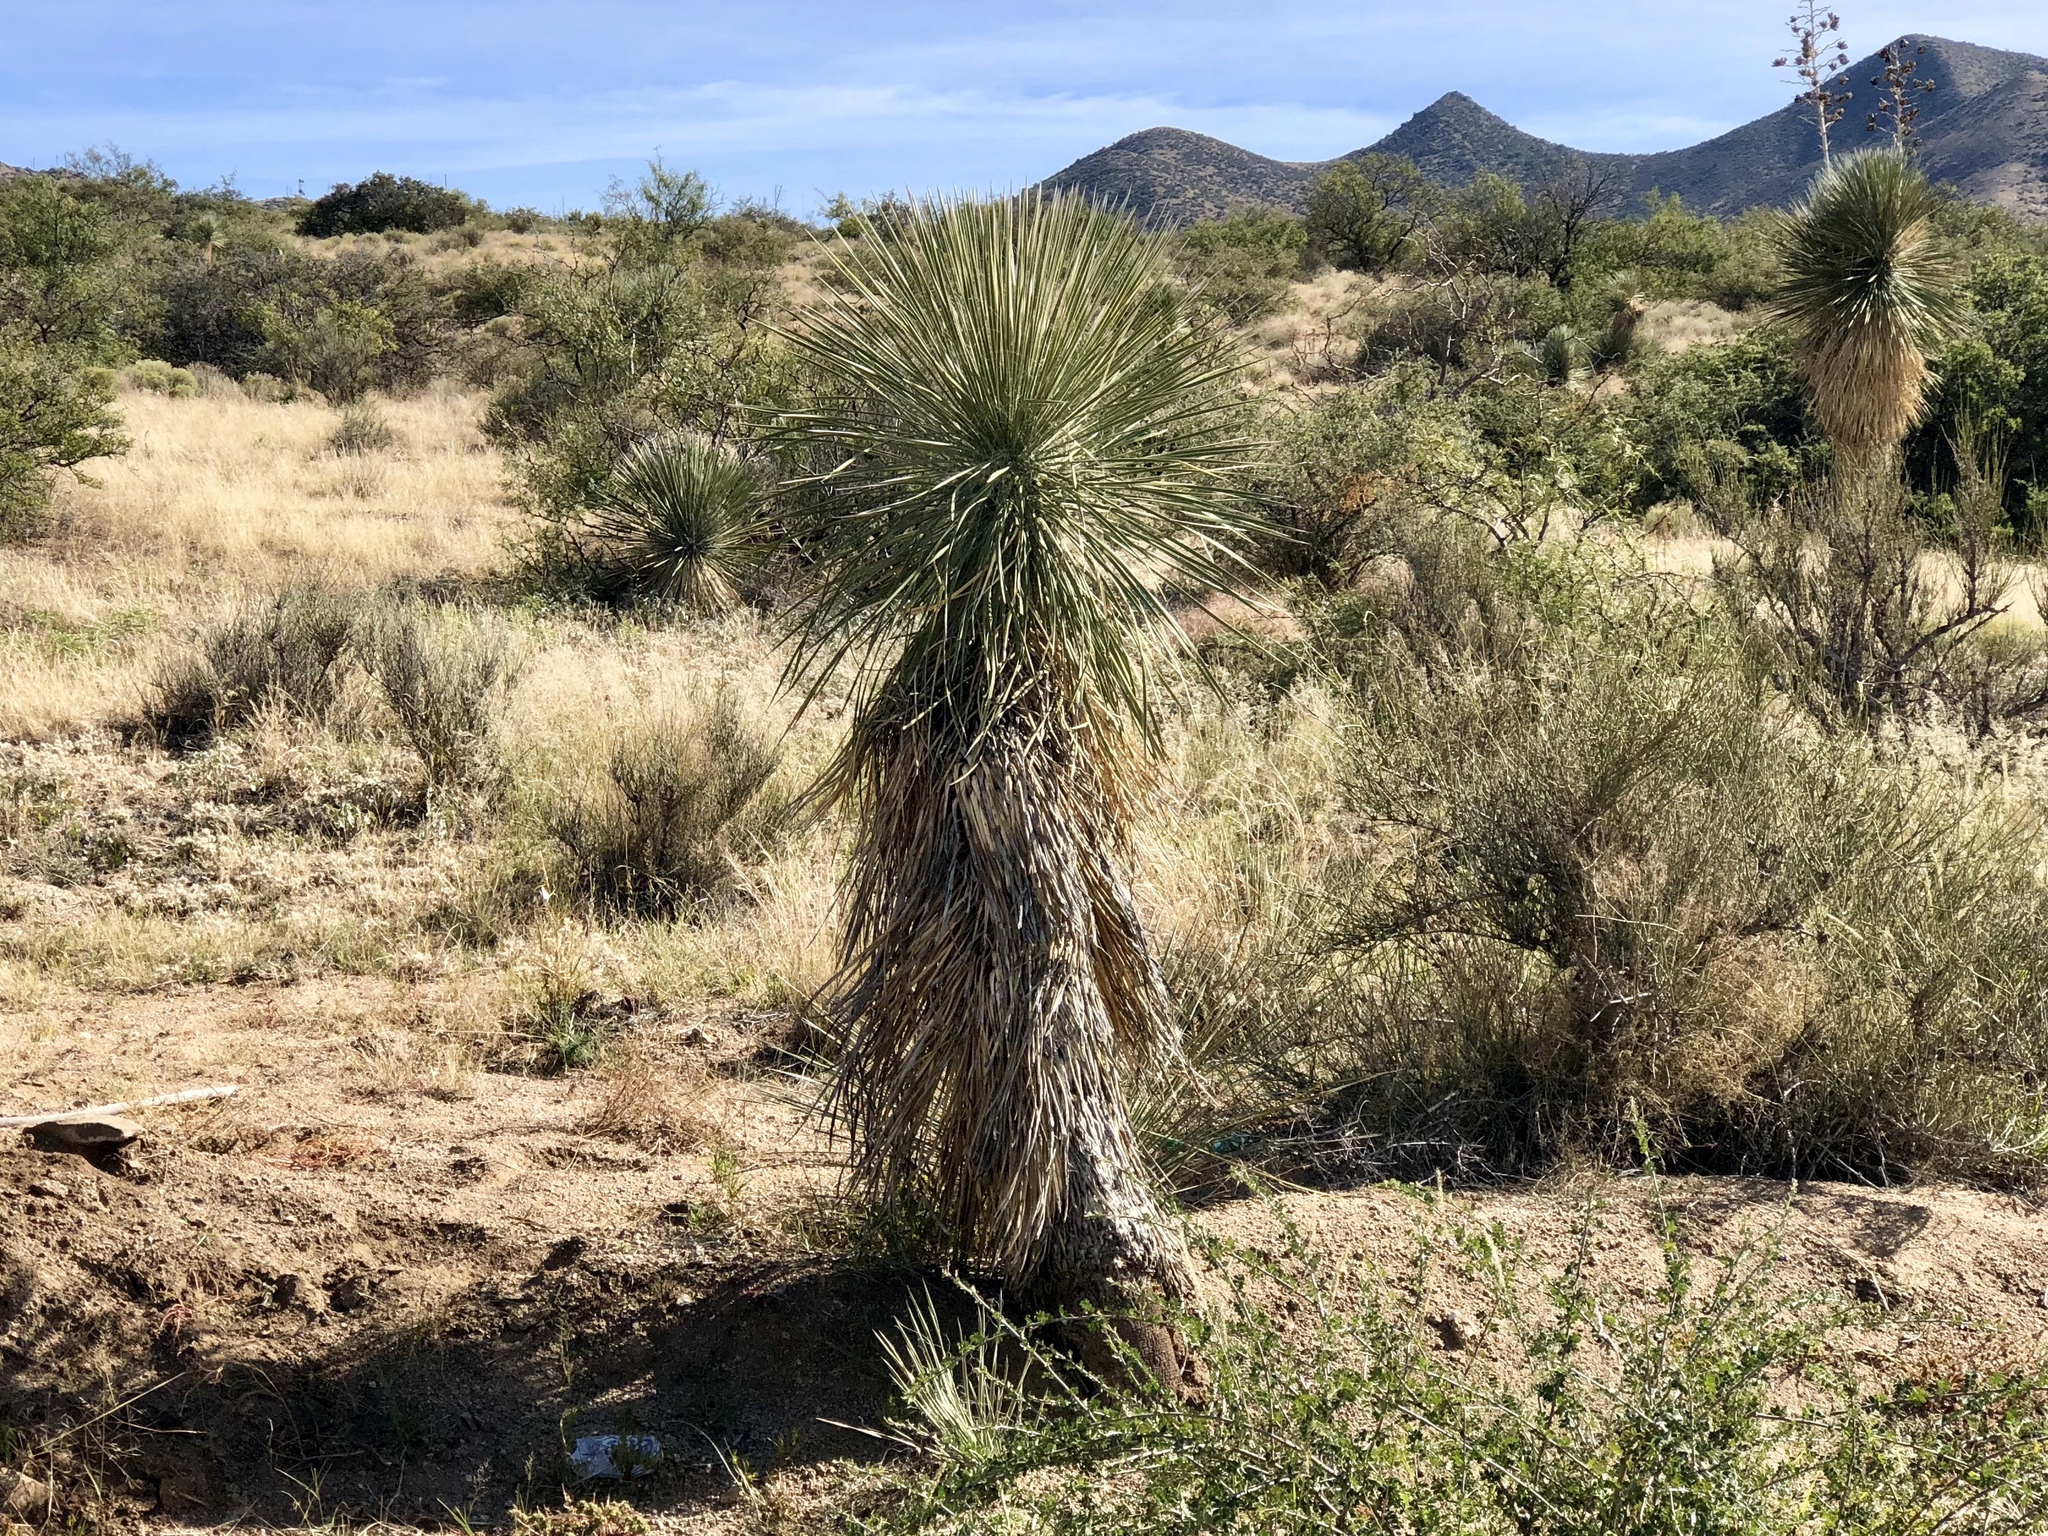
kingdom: Plantae
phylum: Tracheophyta
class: Liliopsida
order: Asparagales
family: Asparagaceae
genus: Yucca
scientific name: Yucca elata
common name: Palmella
